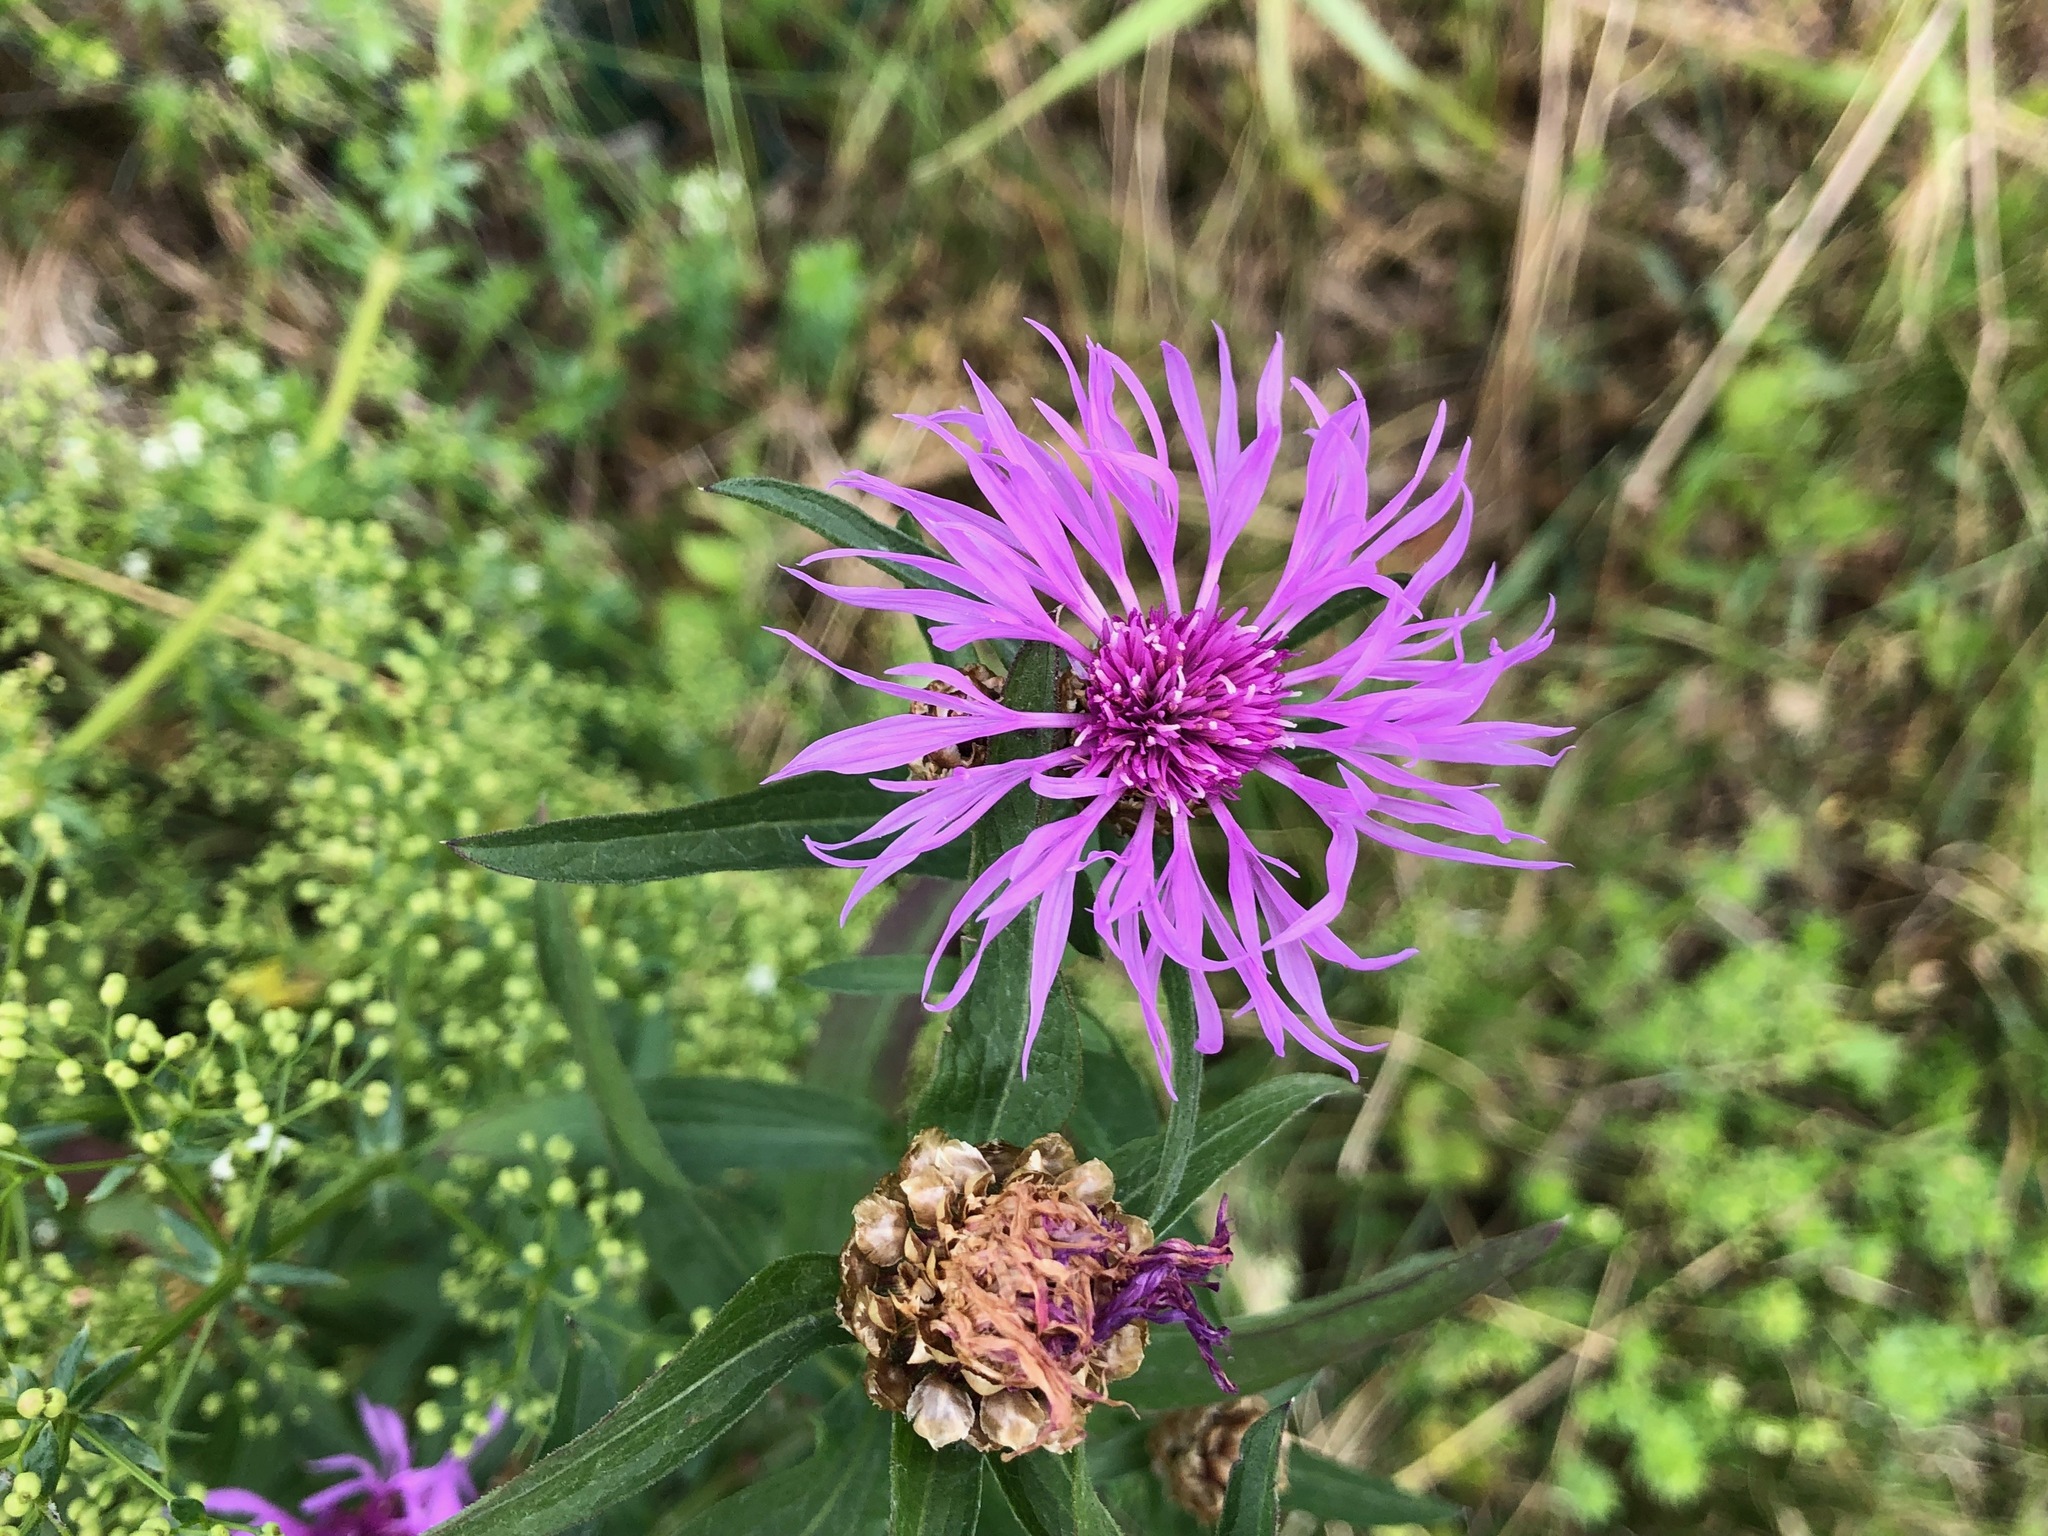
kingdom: Plantae
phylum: Tracheophyta
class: Magnoliopsida
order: Asterales
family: Asteraceae
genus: Centaurea
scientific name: Centaurea jacea
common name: Brown knapweed
